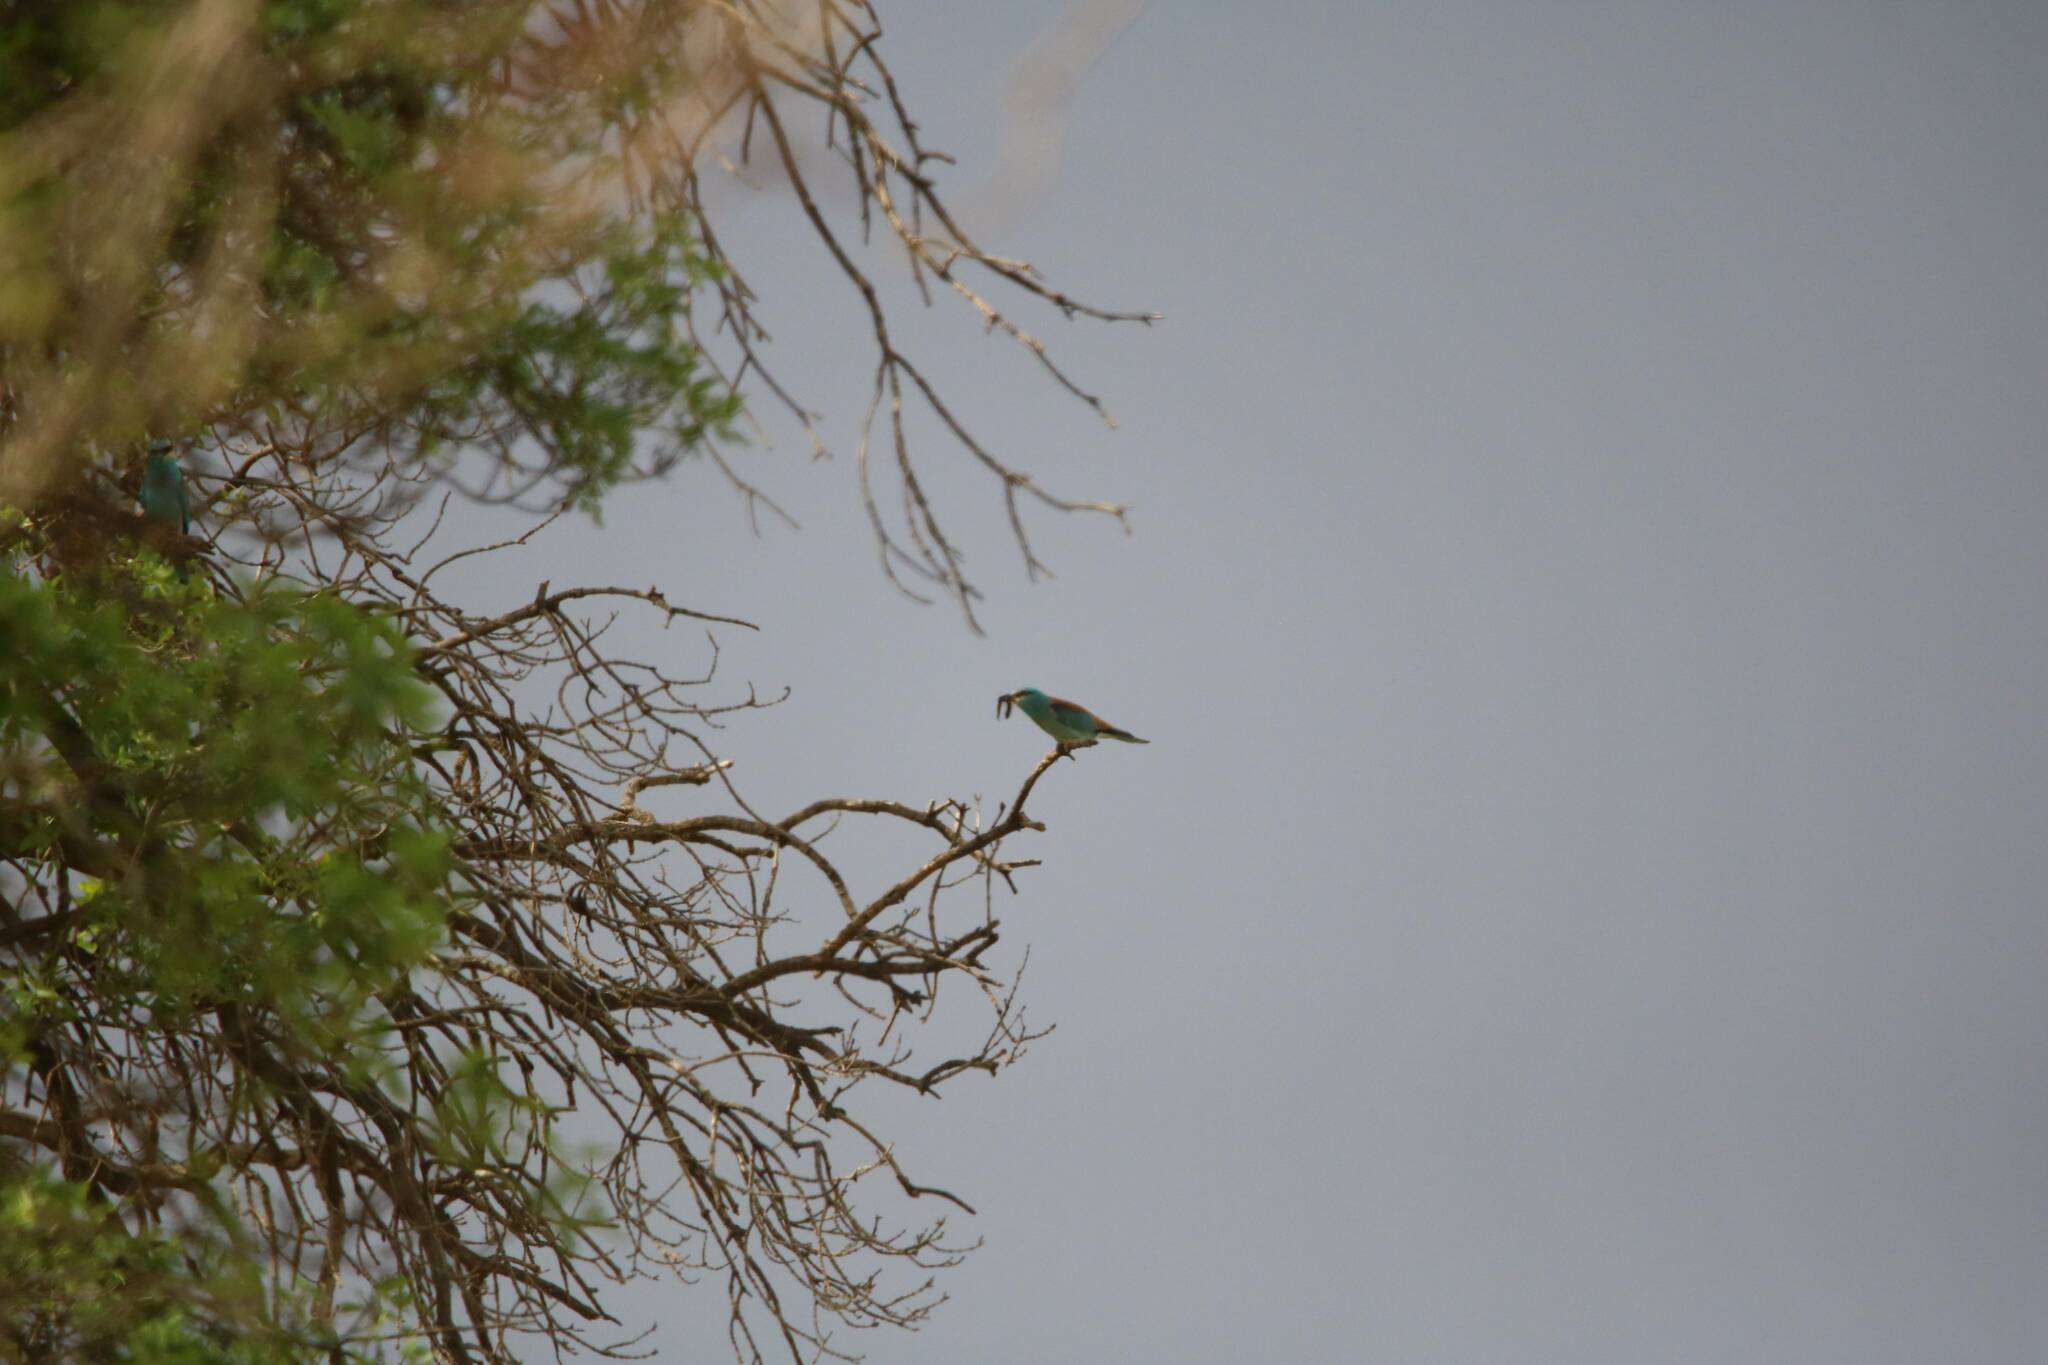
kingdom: Animalia
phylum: Chordata
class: Aves
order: Coraciiformes
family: Coraciidae
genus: Coracias
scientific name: Coracias garrulus
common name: European roller
